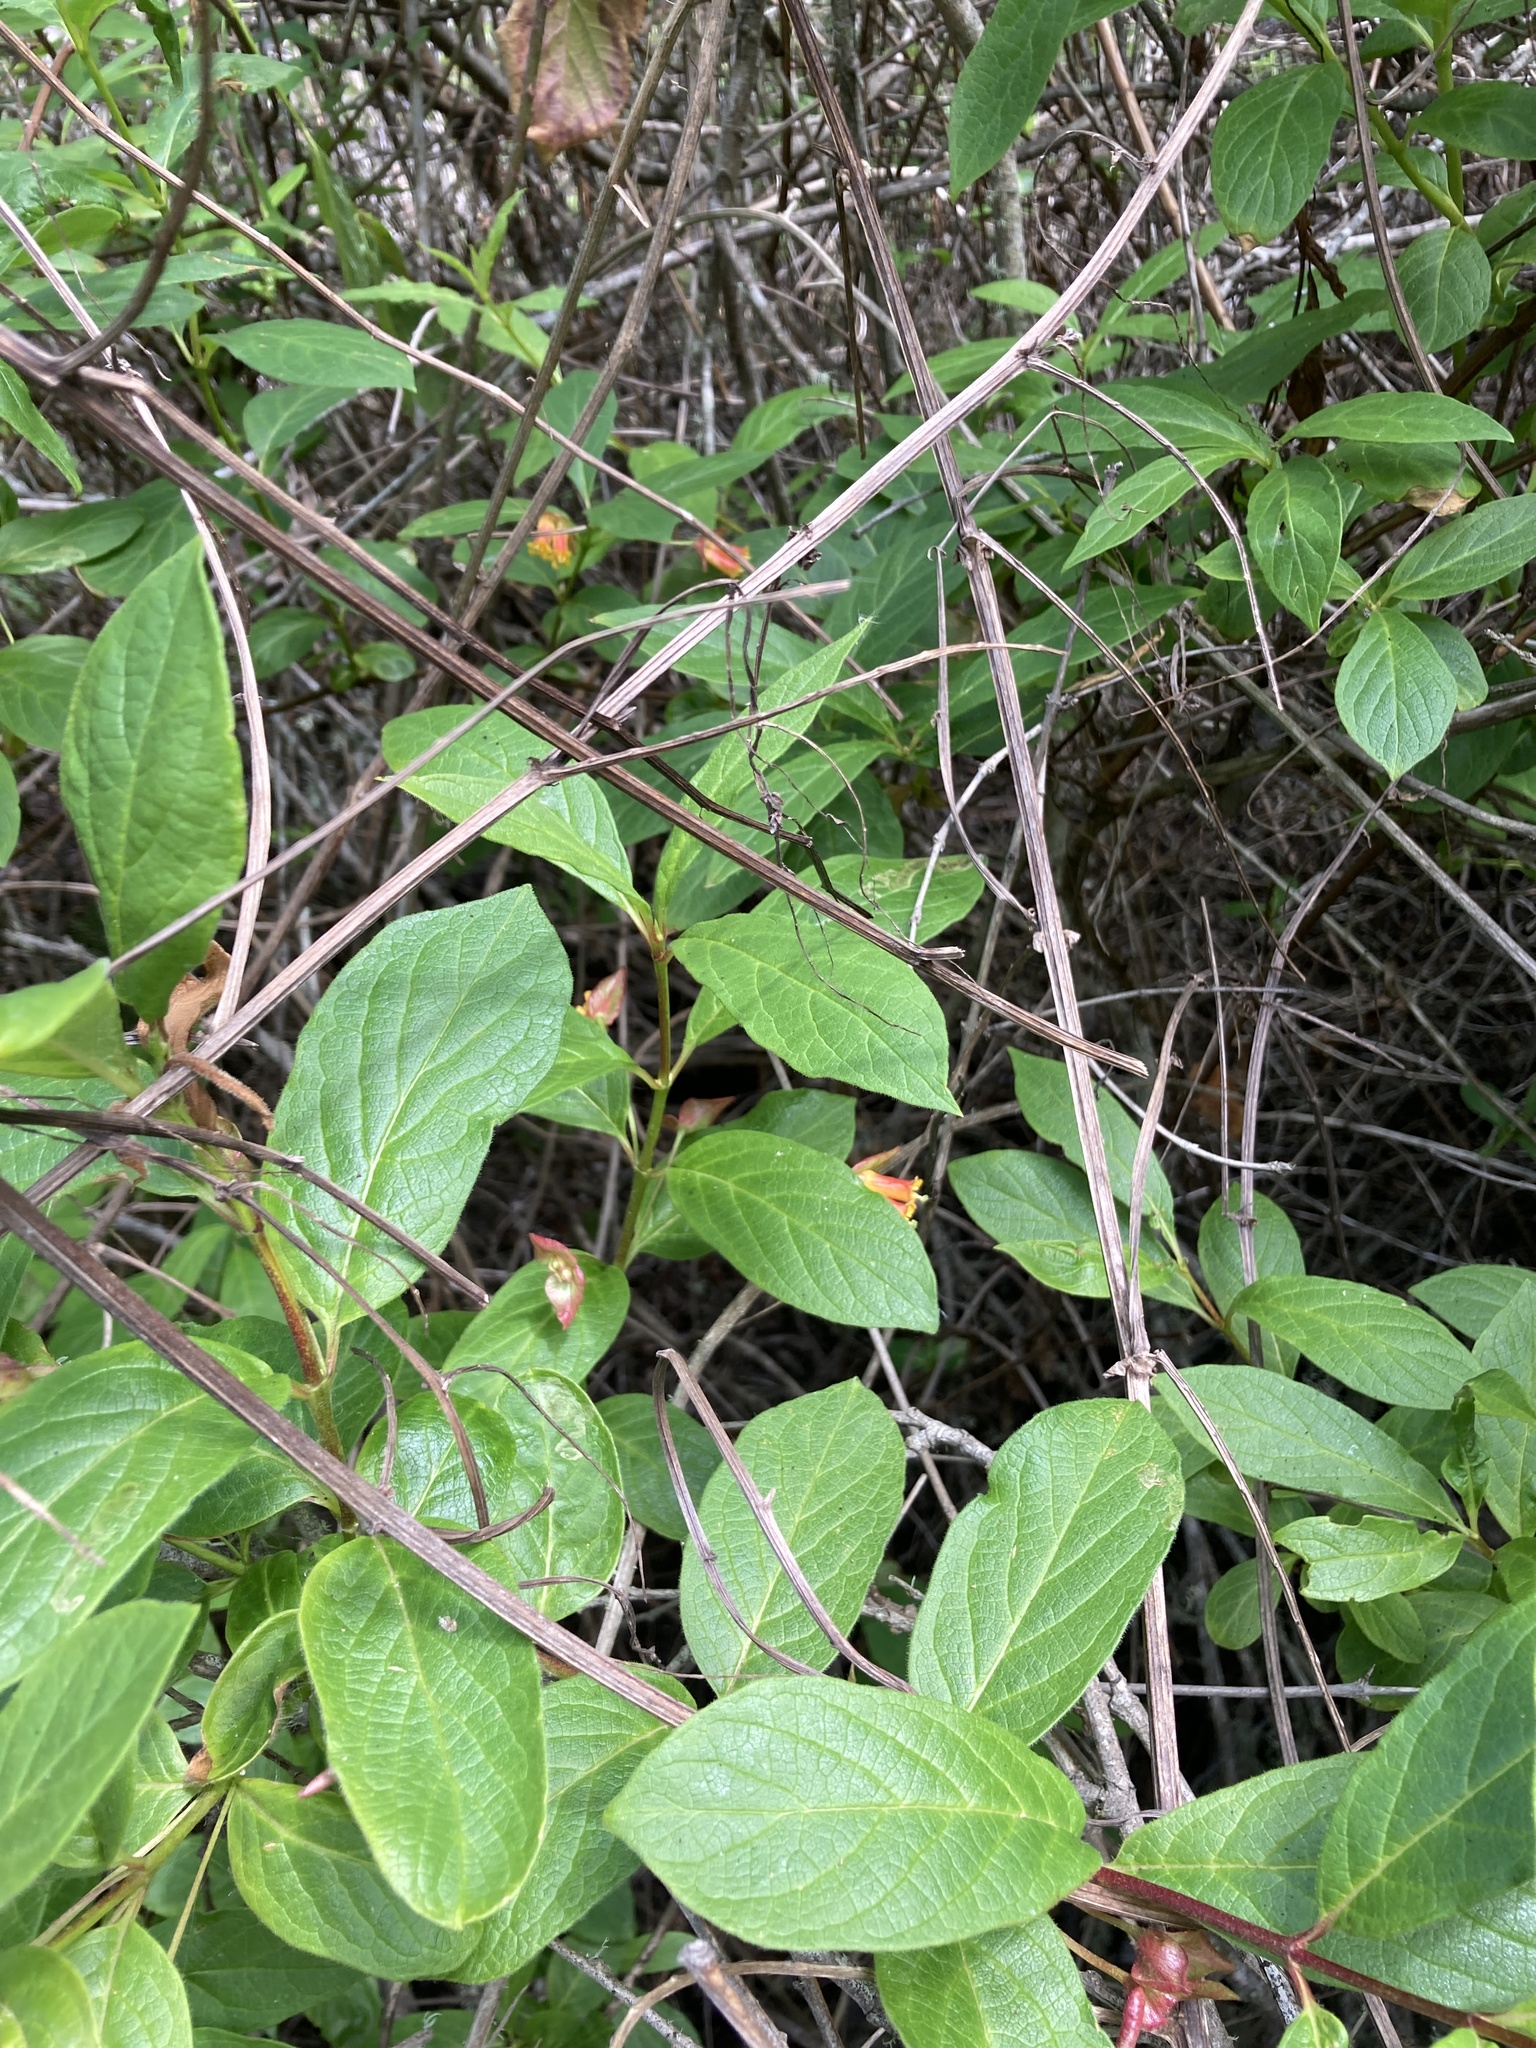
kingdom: Plantae
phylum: Tracheophyta
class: Magnoliopsida
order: Dipsacales
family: Caprifoliaceae
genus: Lonicera
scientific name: Lonicera involucrata
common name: Californian honeysuckle
